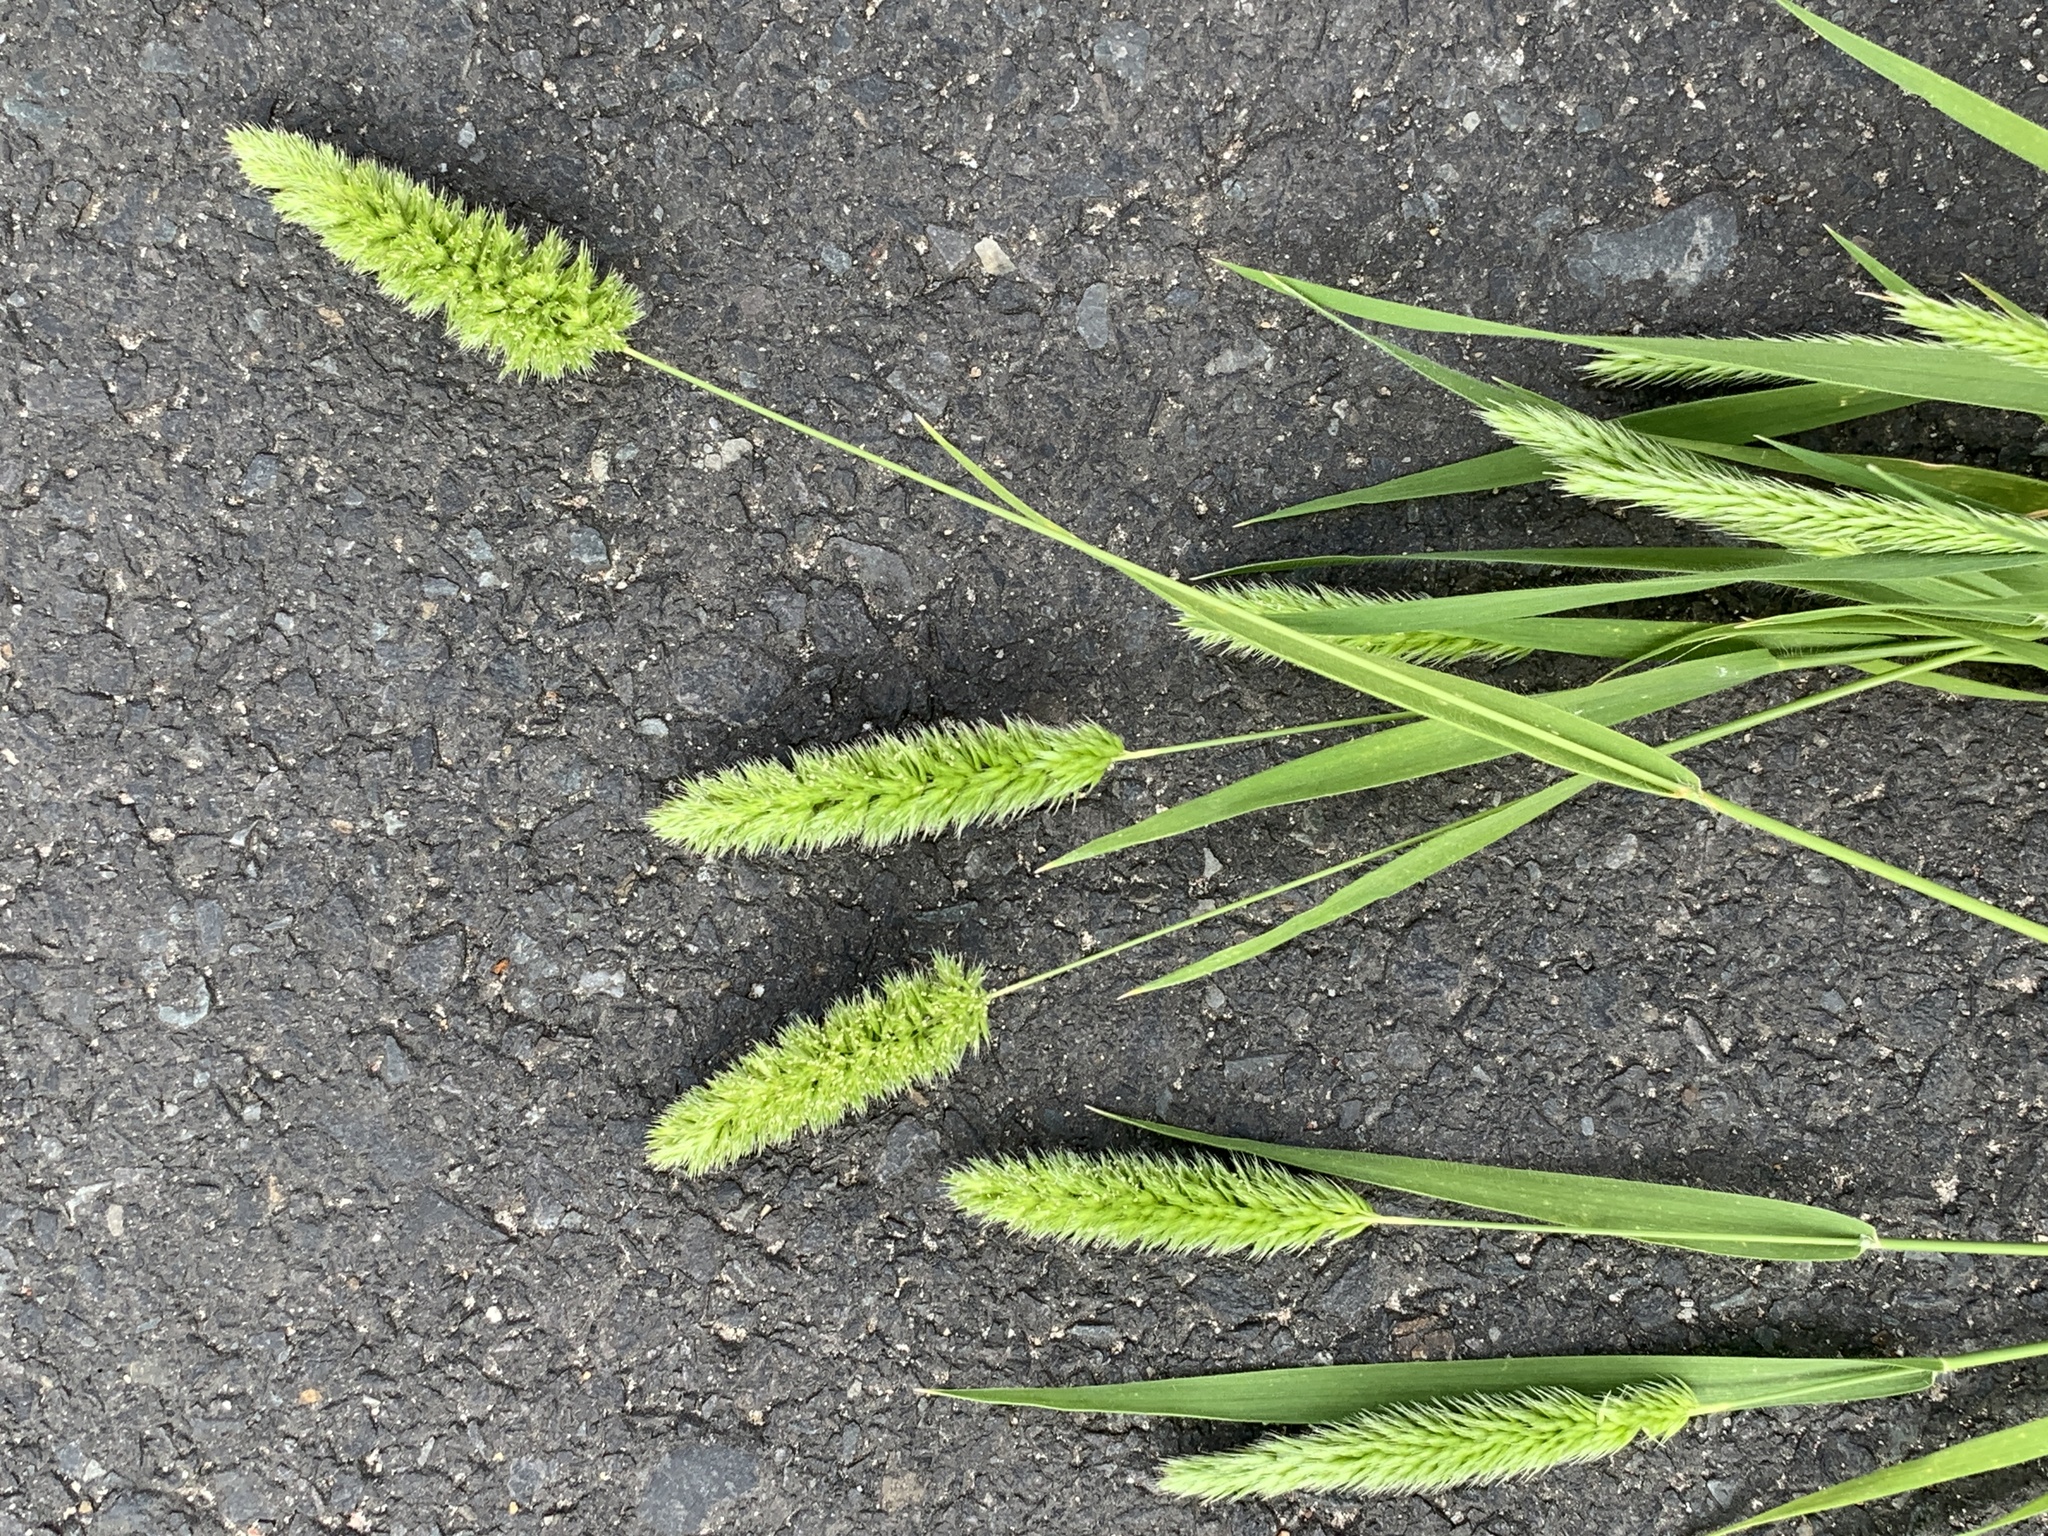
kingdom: Plantae
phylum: Tracheophyta
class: Liliopsida
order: Poales
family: Poaceae
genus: Rostraria
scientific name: Rostraria cristata
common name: Mediterranean hair-grass
